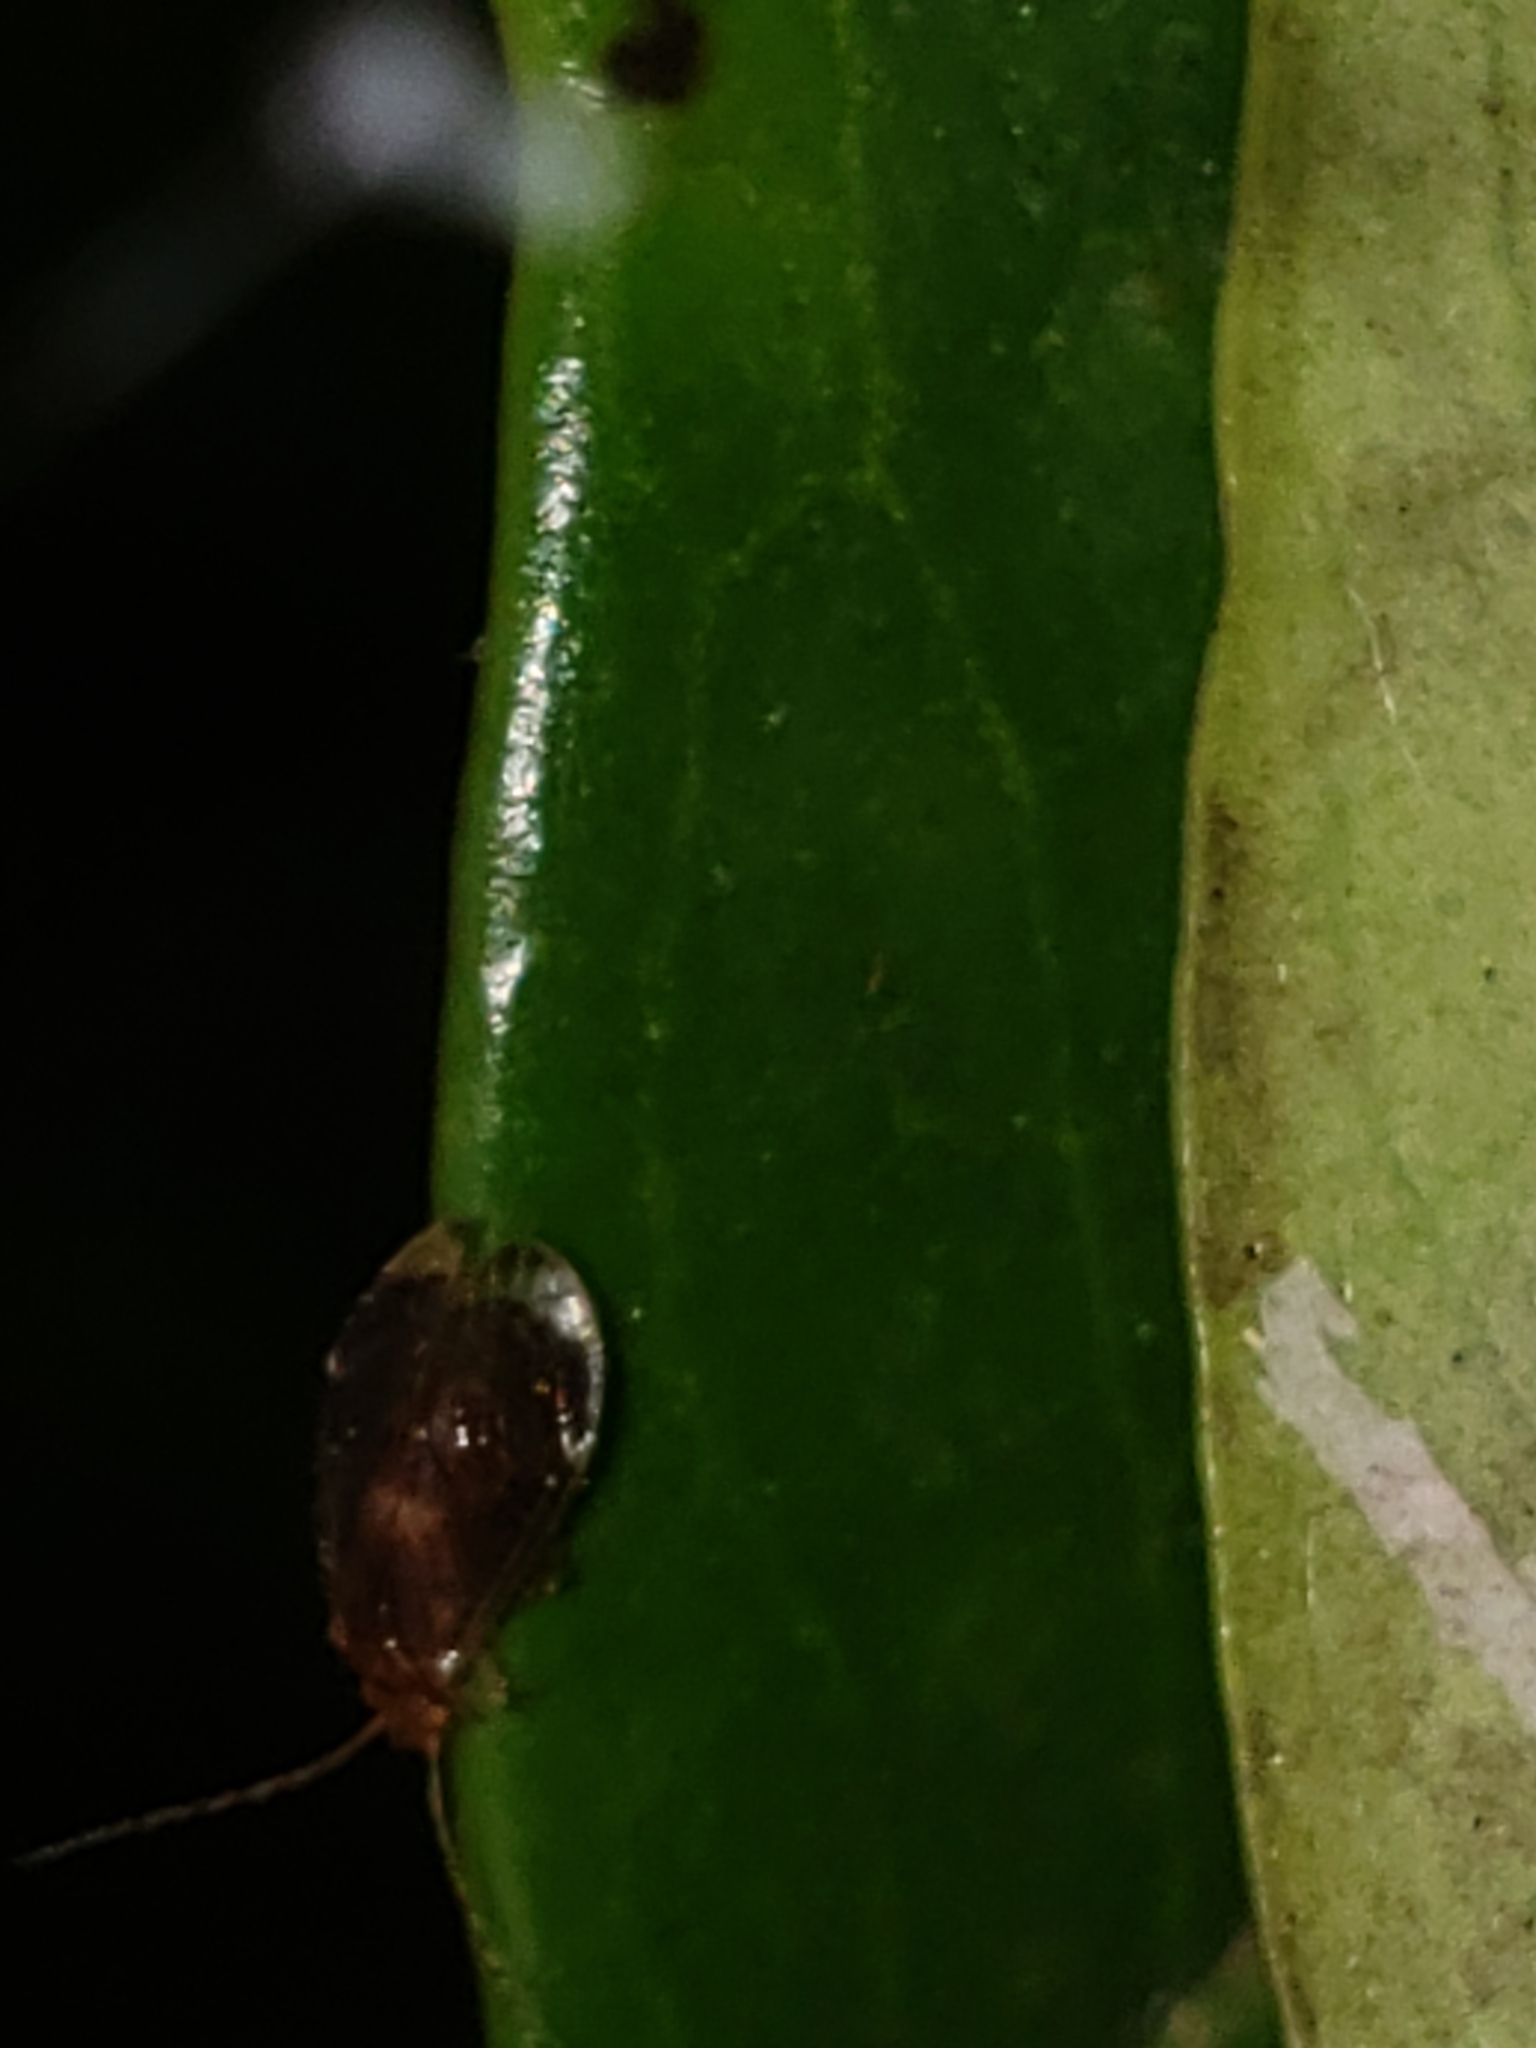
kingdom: Animalia
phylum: Arthropoda
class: Insecta
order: Psocodea
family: Amphipsocidae
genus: Polypsocus
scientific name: Polypsocus corruptus
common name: Corrupt barklouse
